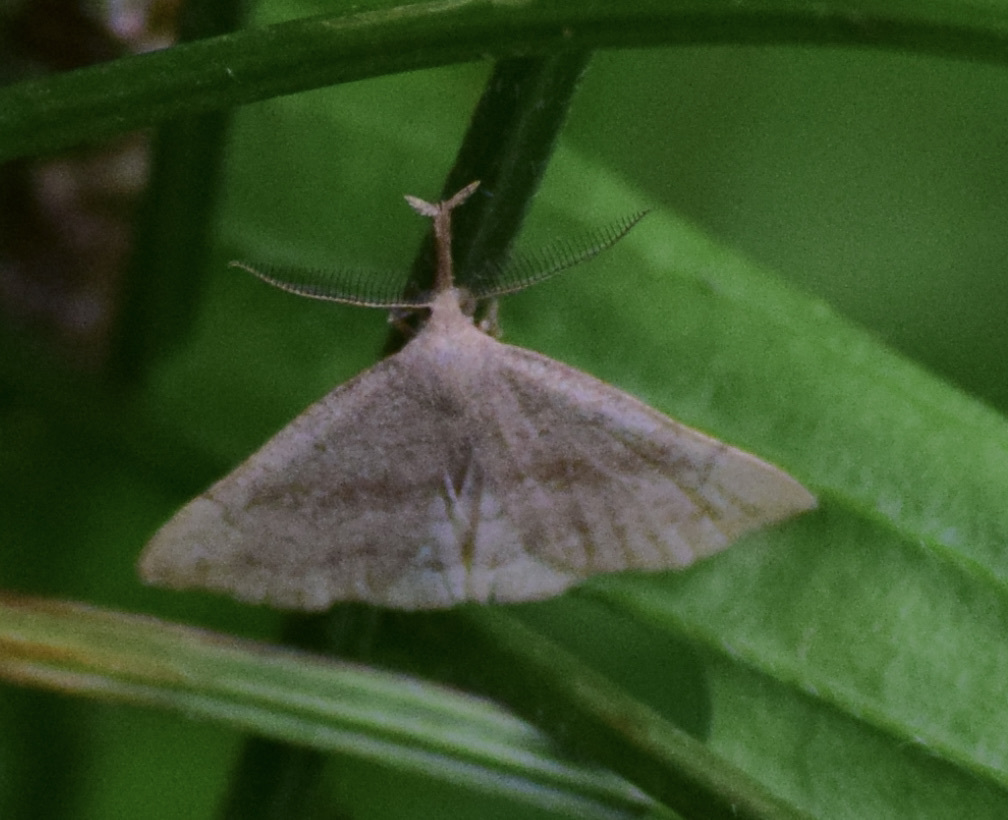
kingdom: Animalia
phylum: Arthropoda
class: Insecta
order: Lepidoptera
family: Erebidae
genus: Phalaenostola
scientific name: Phalaenostola metonalis
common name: Pale phalaenostola moth
